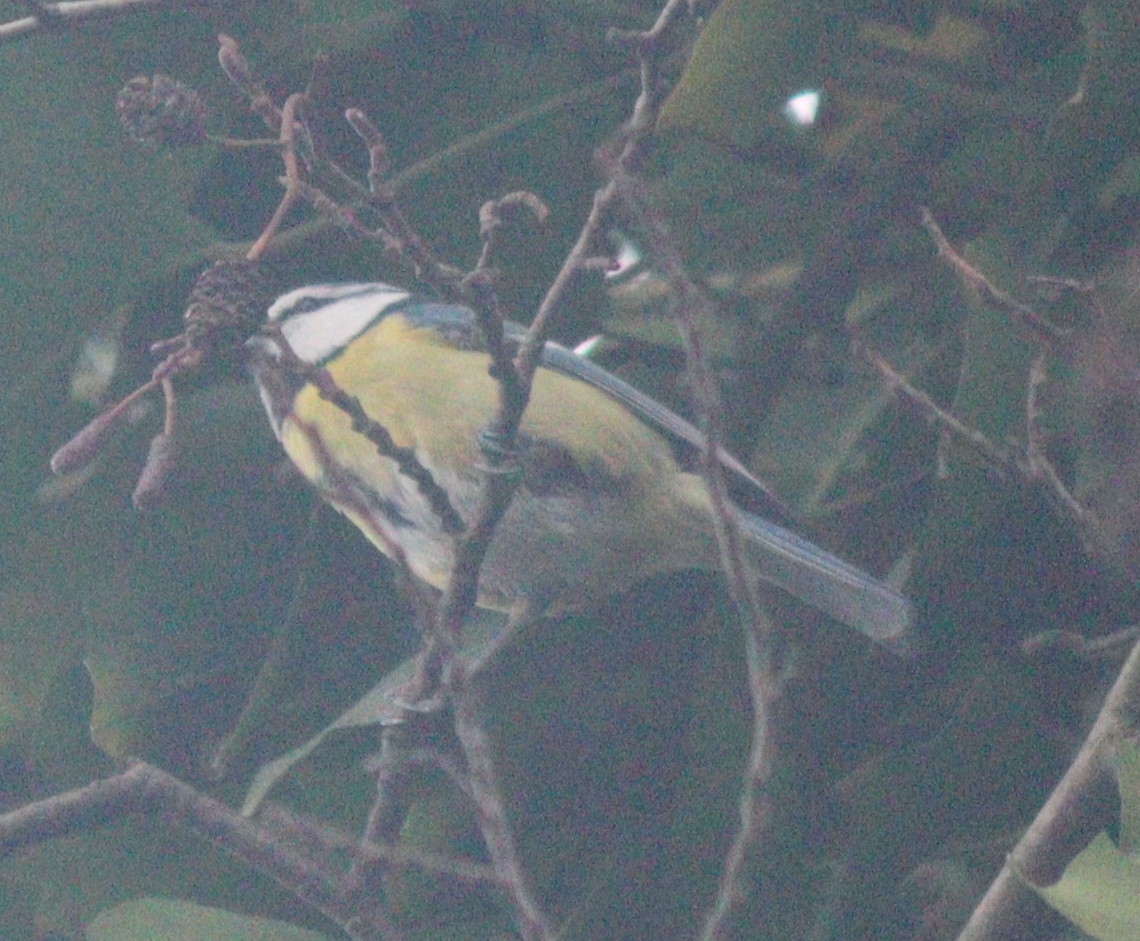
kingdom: Animalia
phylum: Chordata
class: Aves
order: Passeriformes
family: Paridae
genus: Cyanistes
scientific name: Cyanistes caeruleus
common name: Eurasian blue tit
